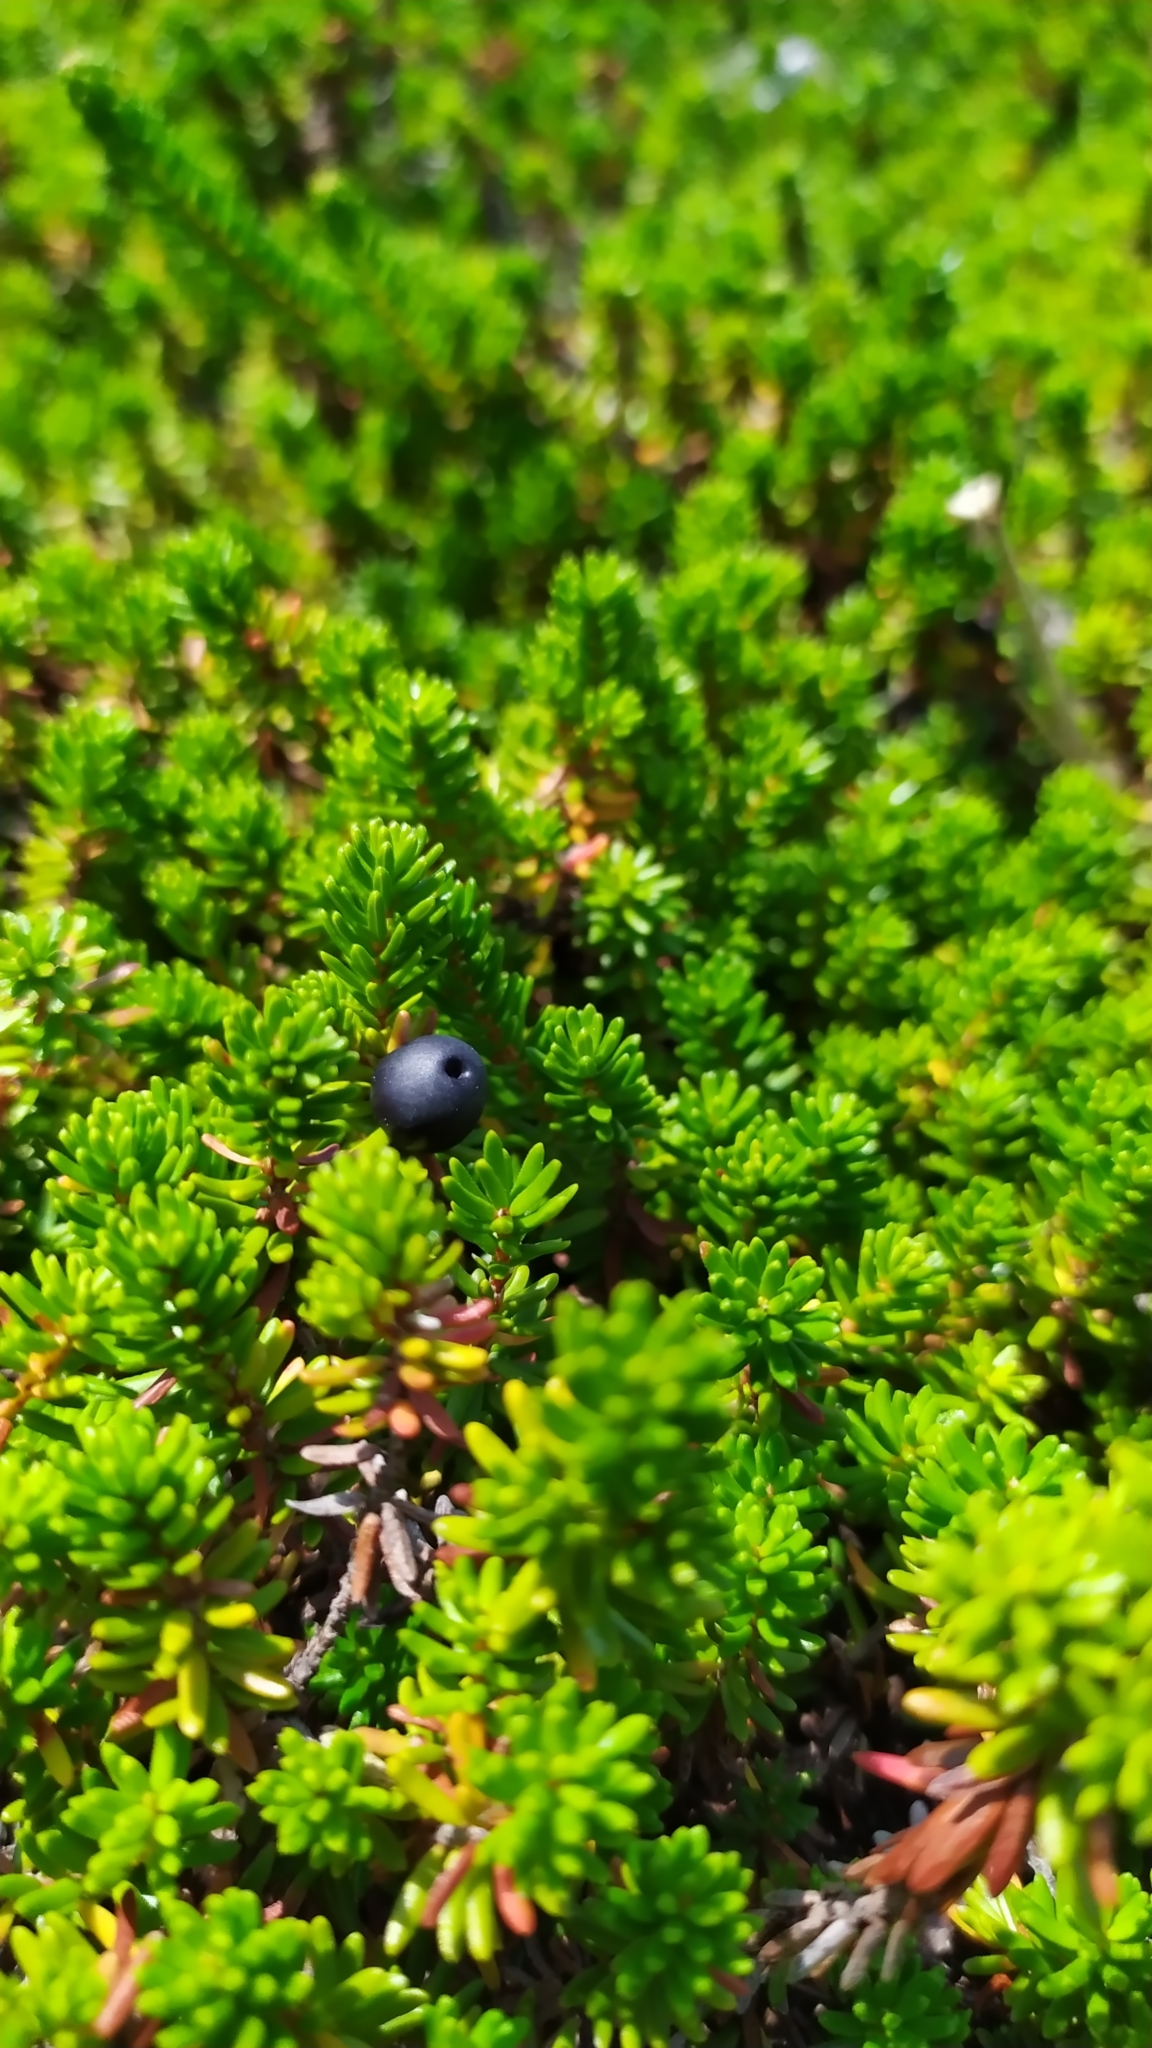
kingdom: Plantae
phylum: Tracheophyta
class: Magnoliopsida
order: Ericales
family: Ericaceae
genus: Empetrum
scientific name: Empetrum nigrum
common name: Black crowberry
